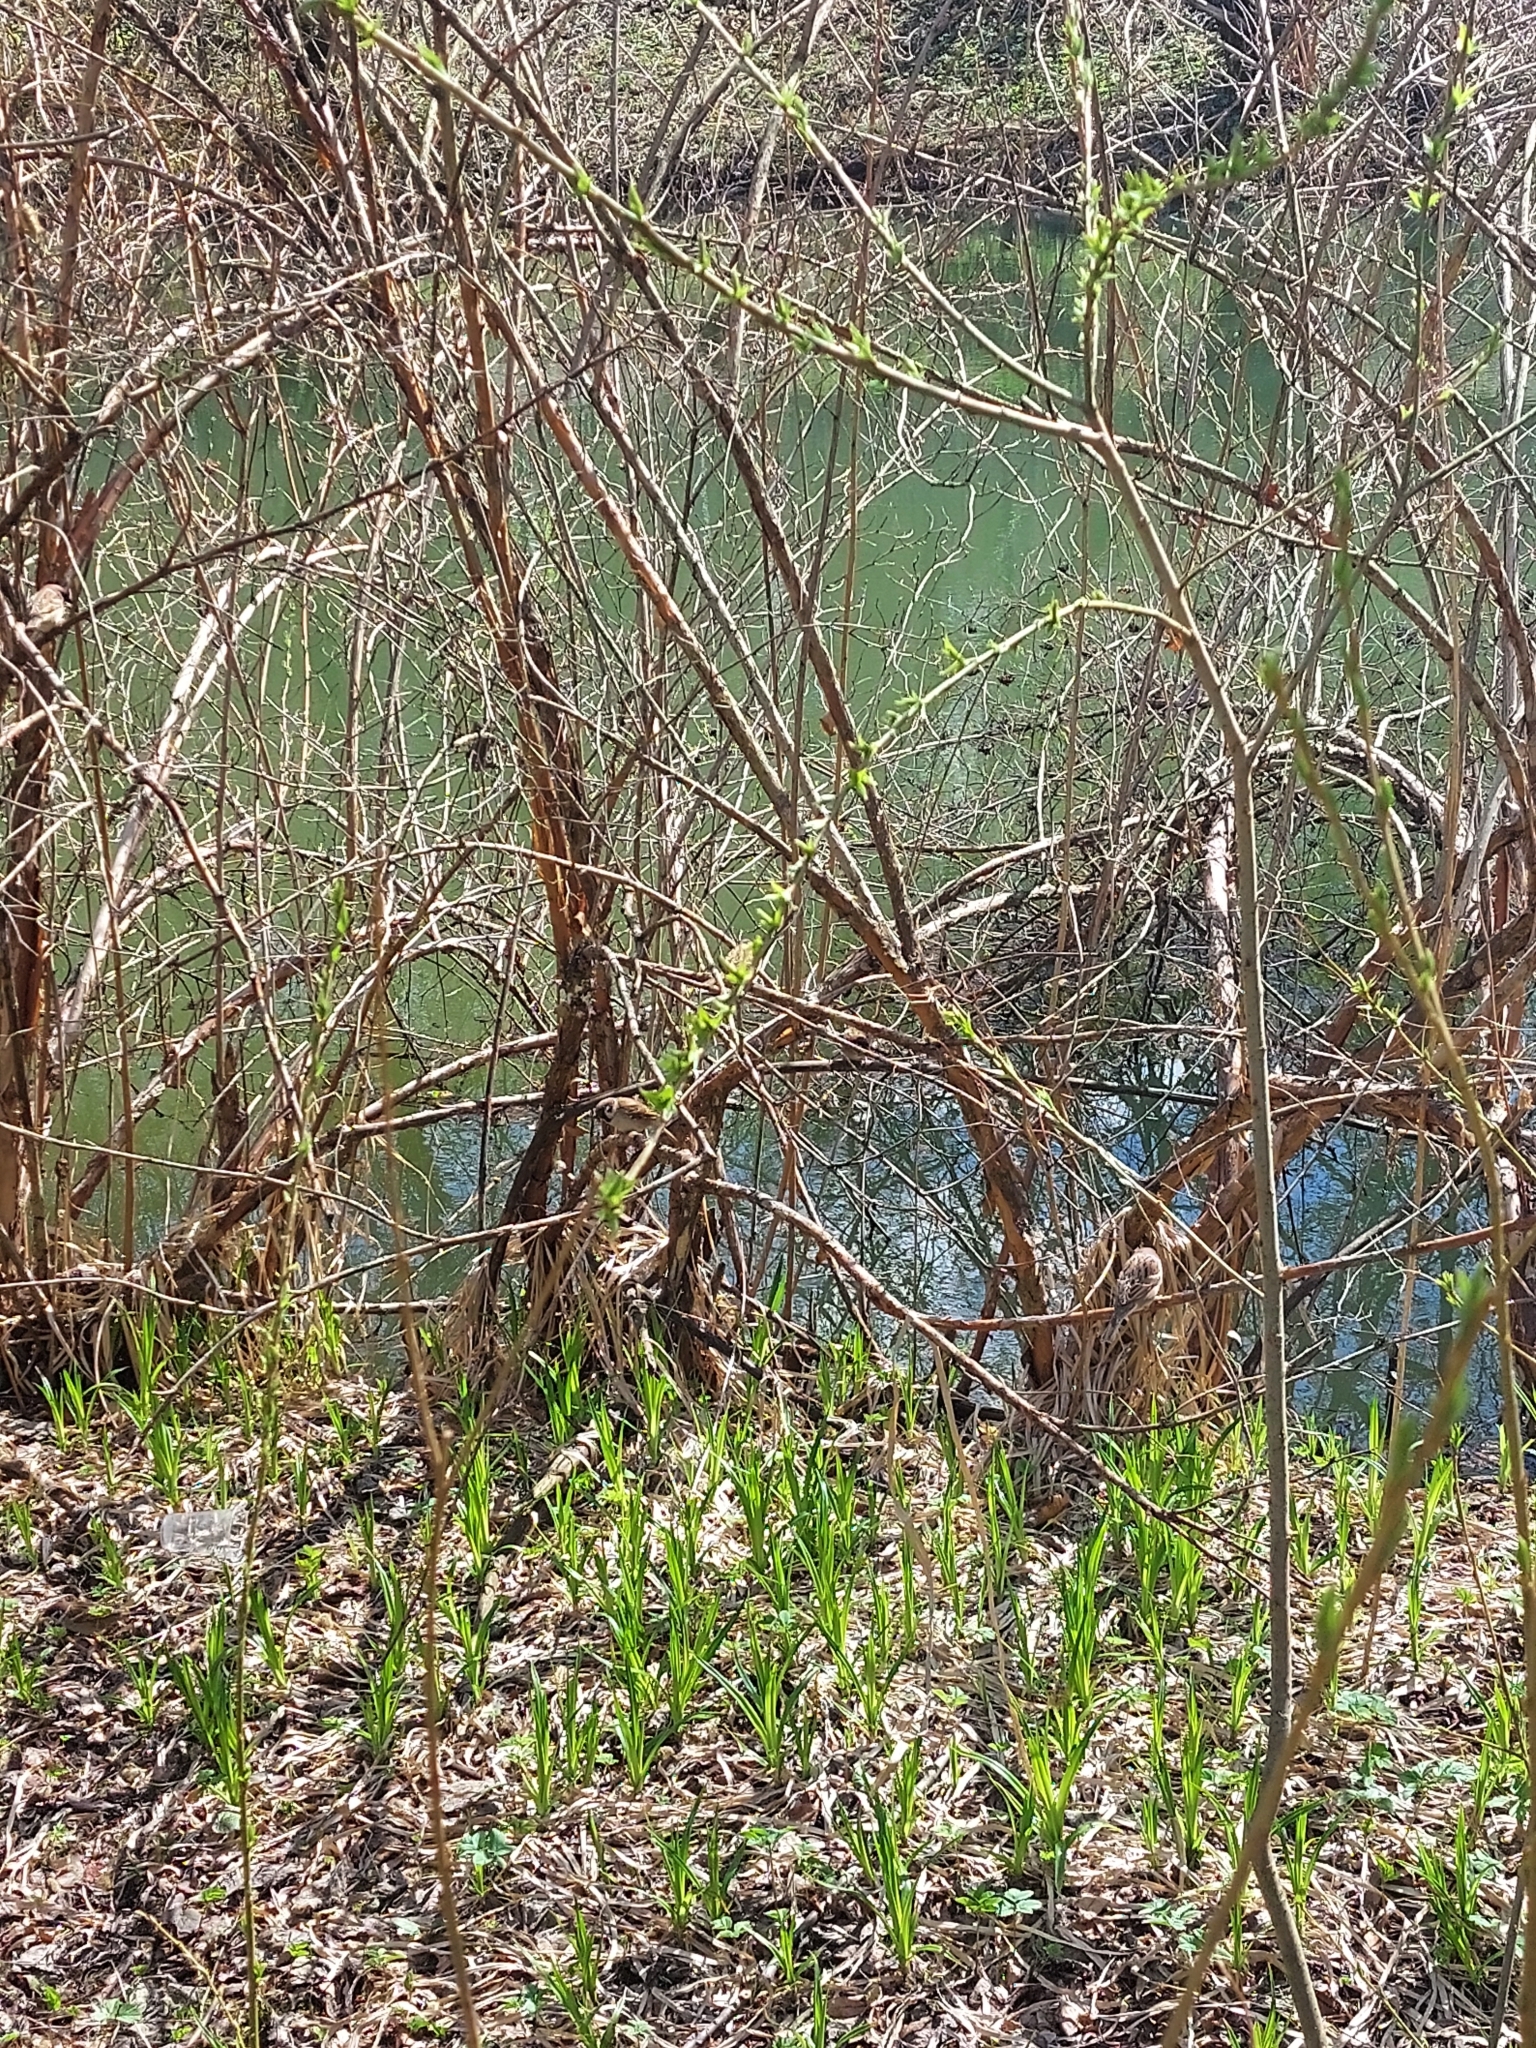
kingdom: Animalia
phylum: Chordata
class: Aves
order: Passeriformes
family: Passeridae
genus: Passer
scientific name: Passer montanus
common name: Eurasian tree sparrow
